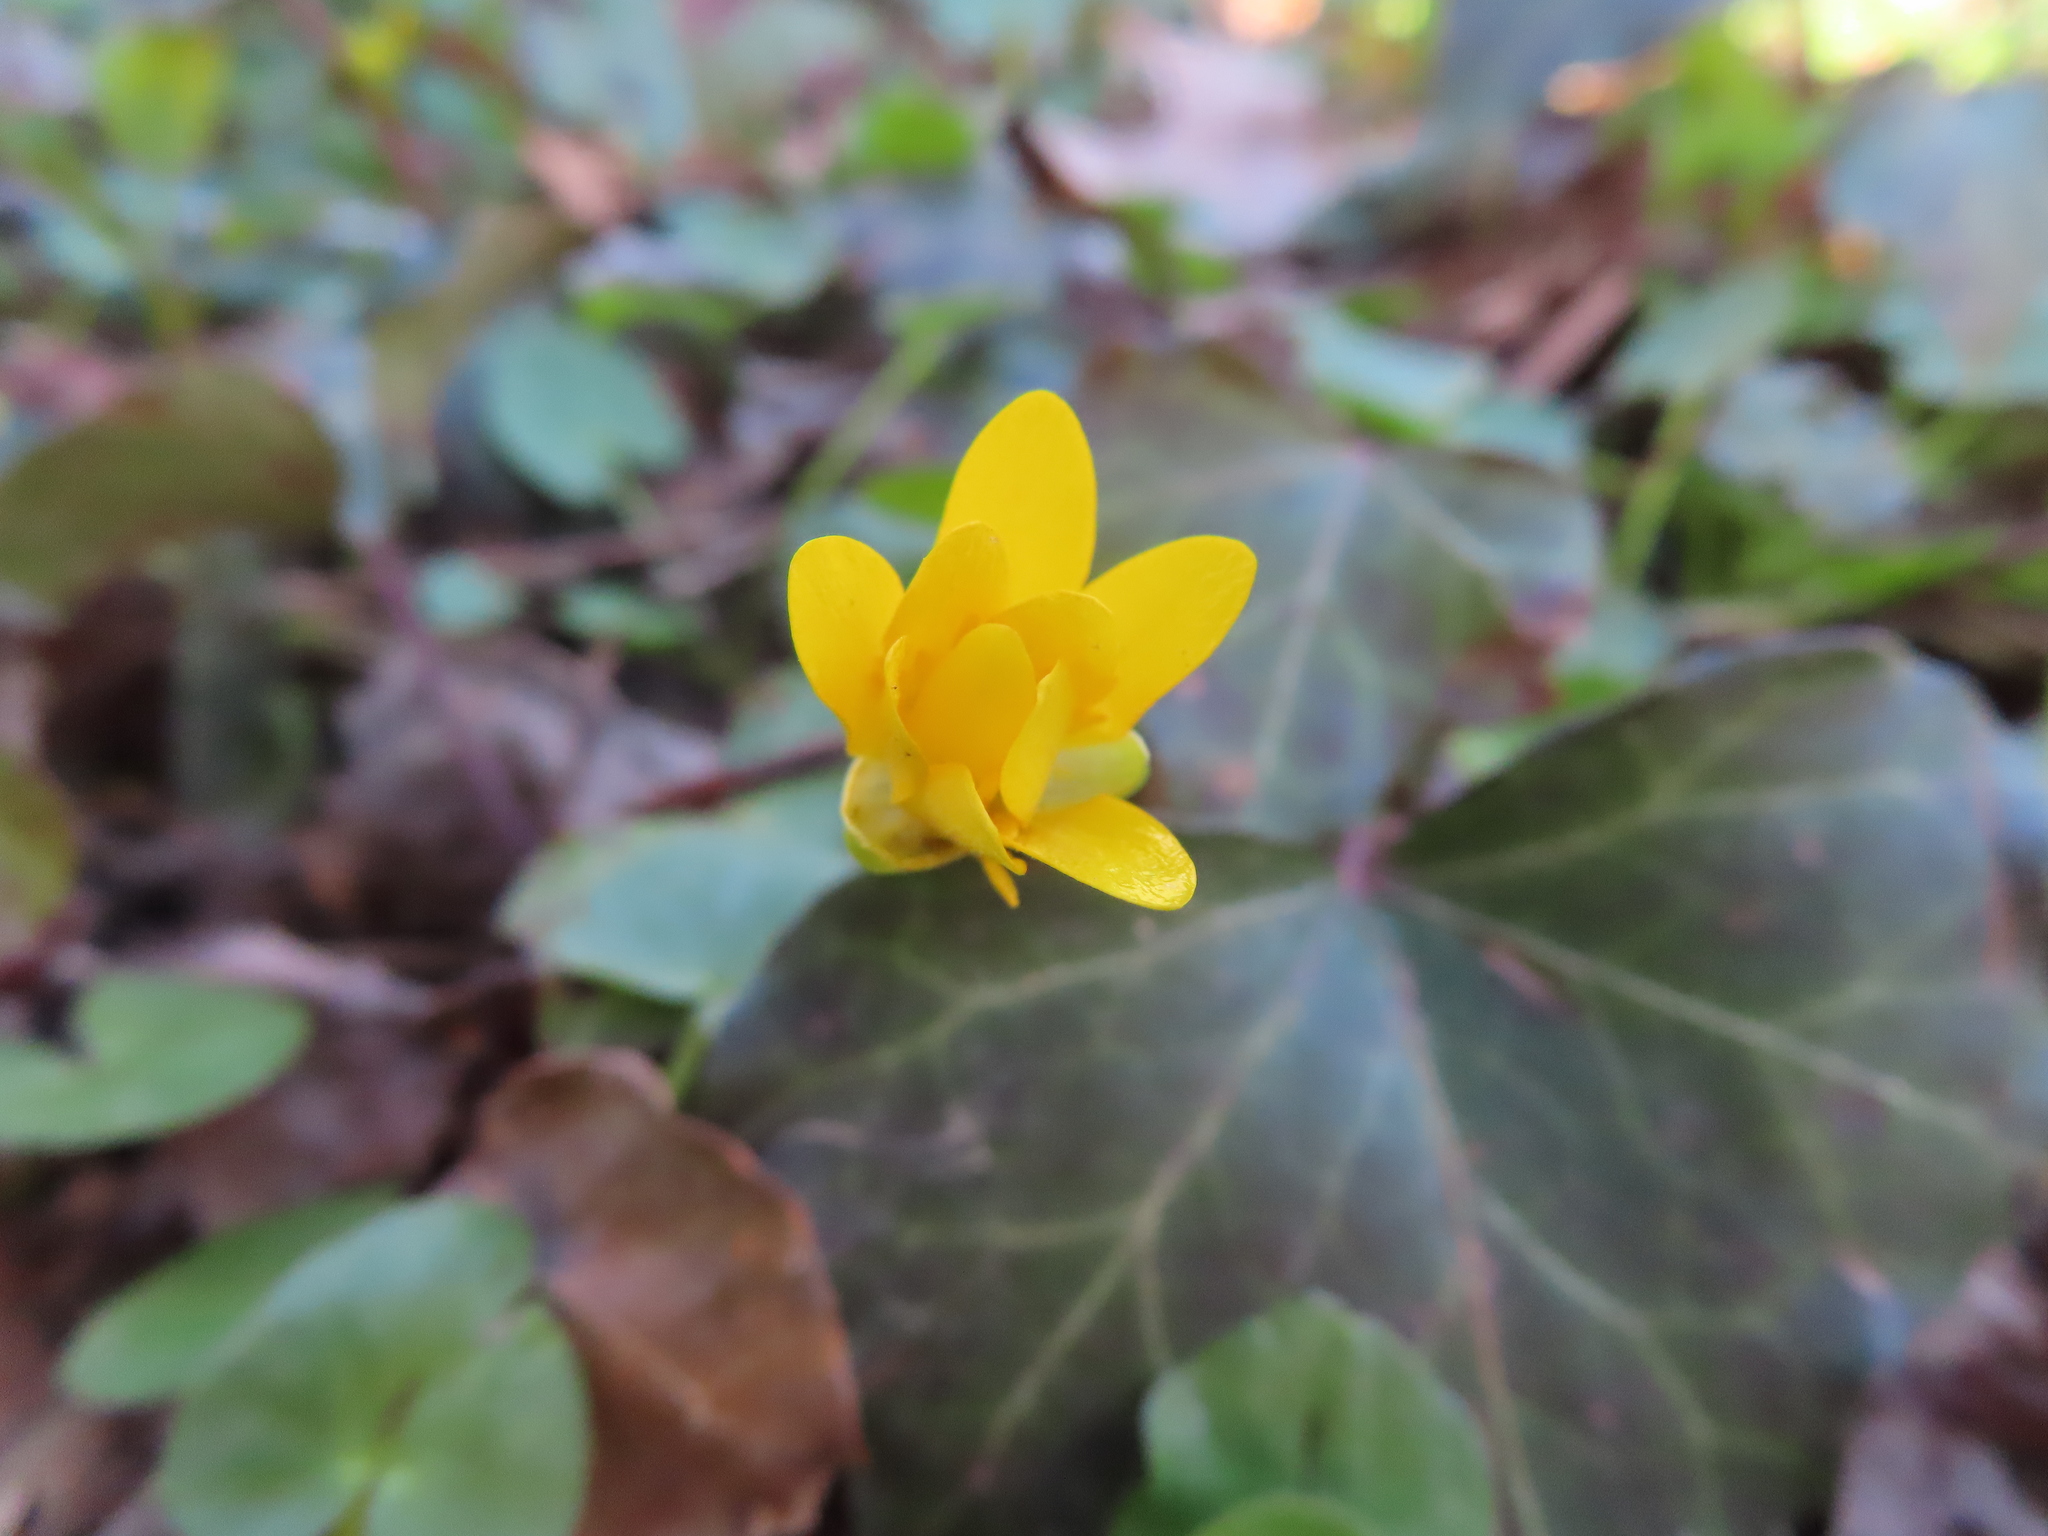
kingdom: Plantae
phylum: Tracheophyta
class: Magnoliopsida
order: Ranunculales
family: Ranunculaceae
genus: Ficaria
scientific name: Ficaria verna
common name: Lesser celandine
